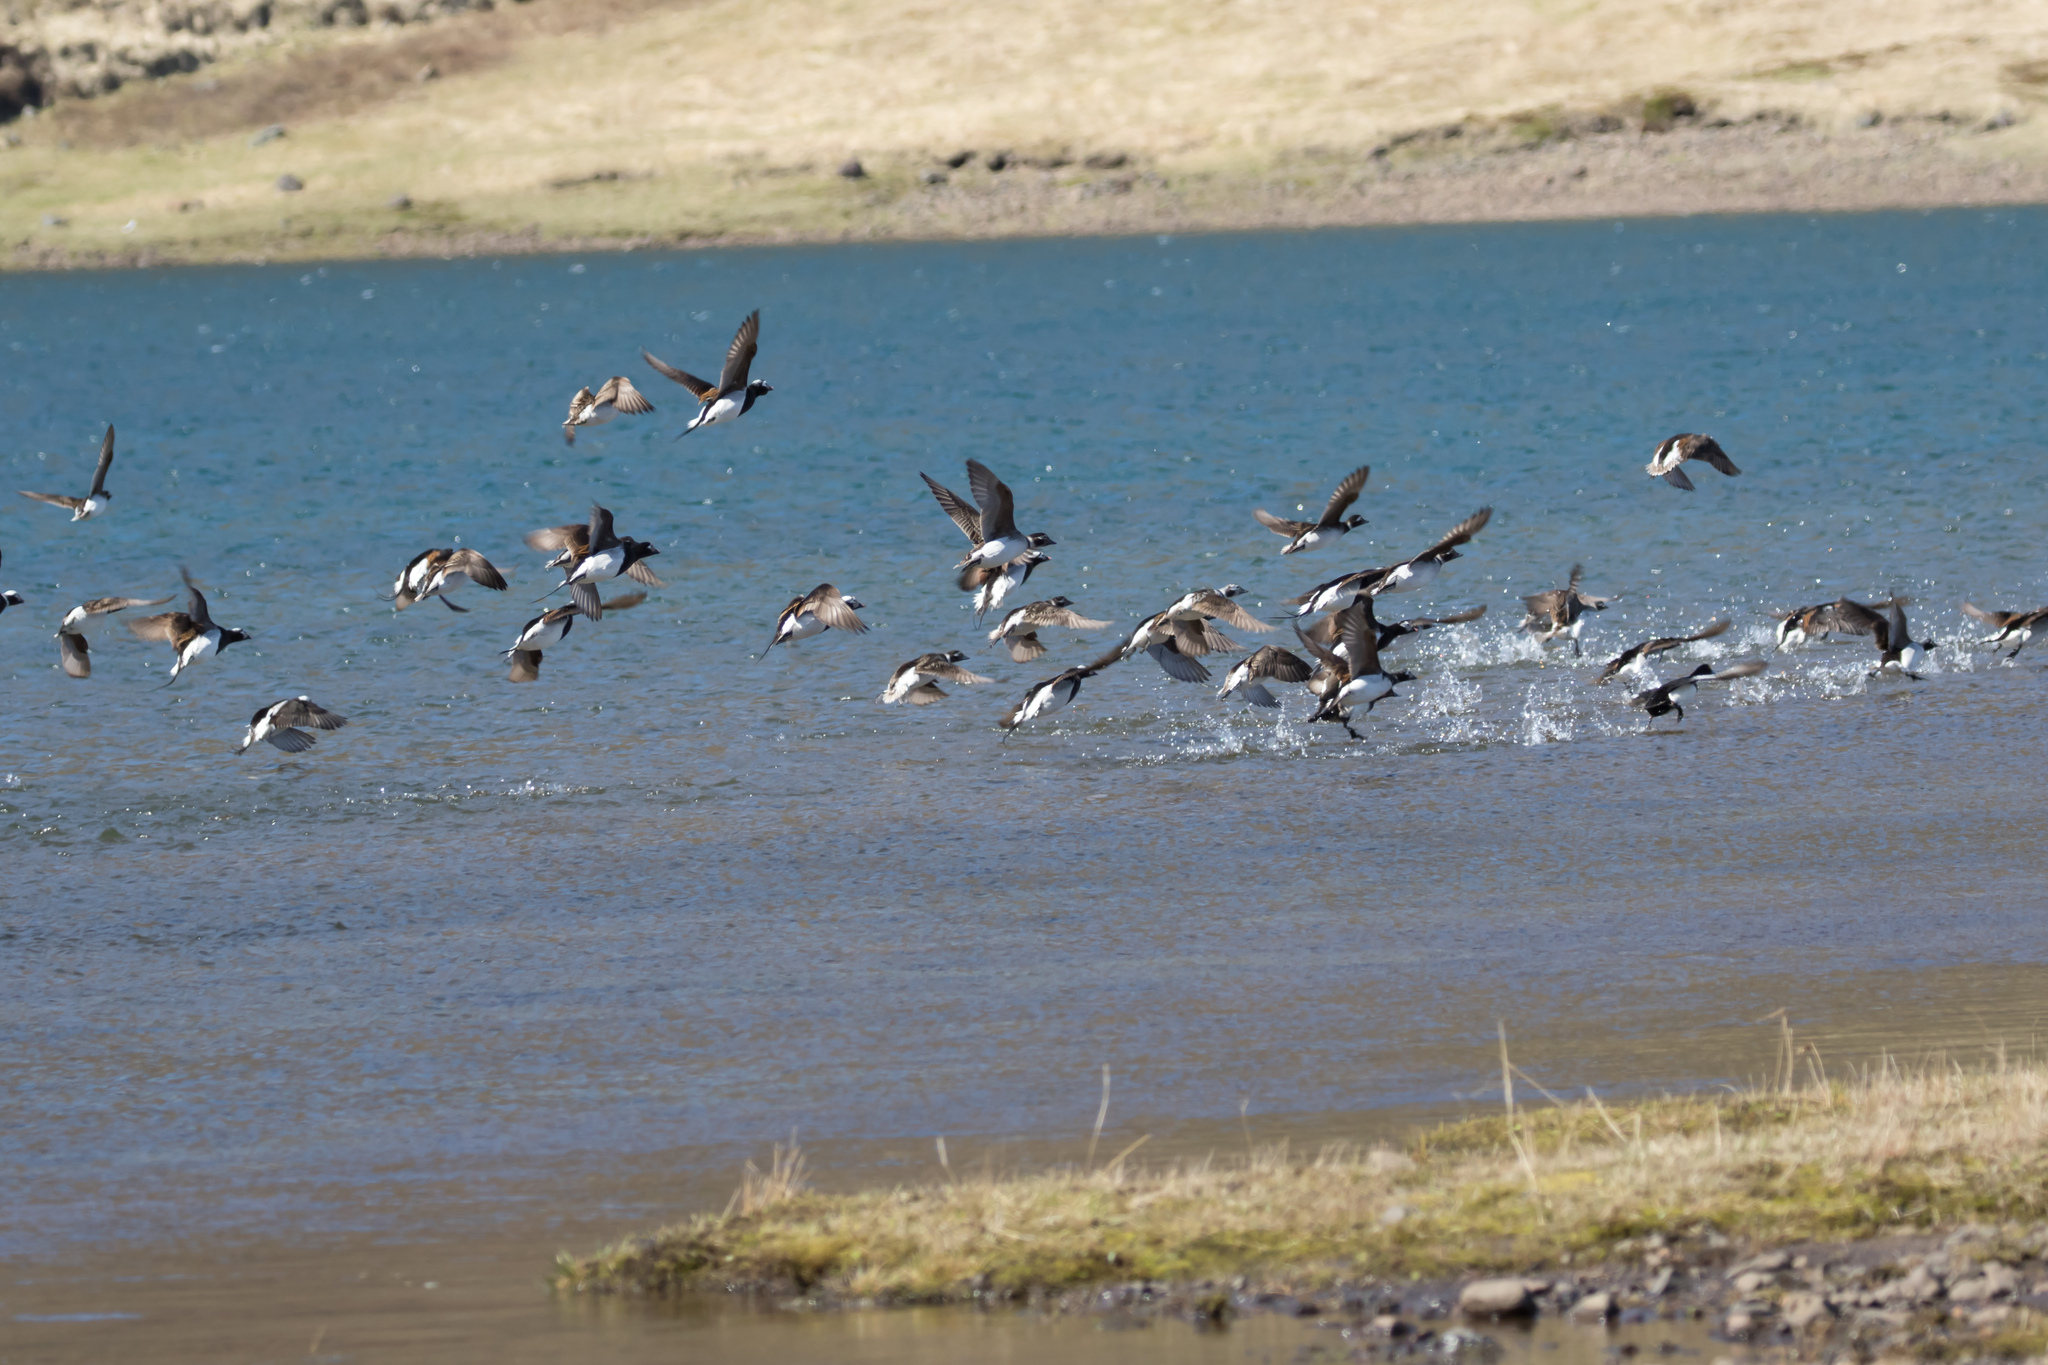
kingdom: Animalia
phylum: Chordata
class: Aves
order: Anseriformes
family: Anatidae
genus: Clangula
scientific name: Clangula hyemalis
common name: Long-tailed duck
